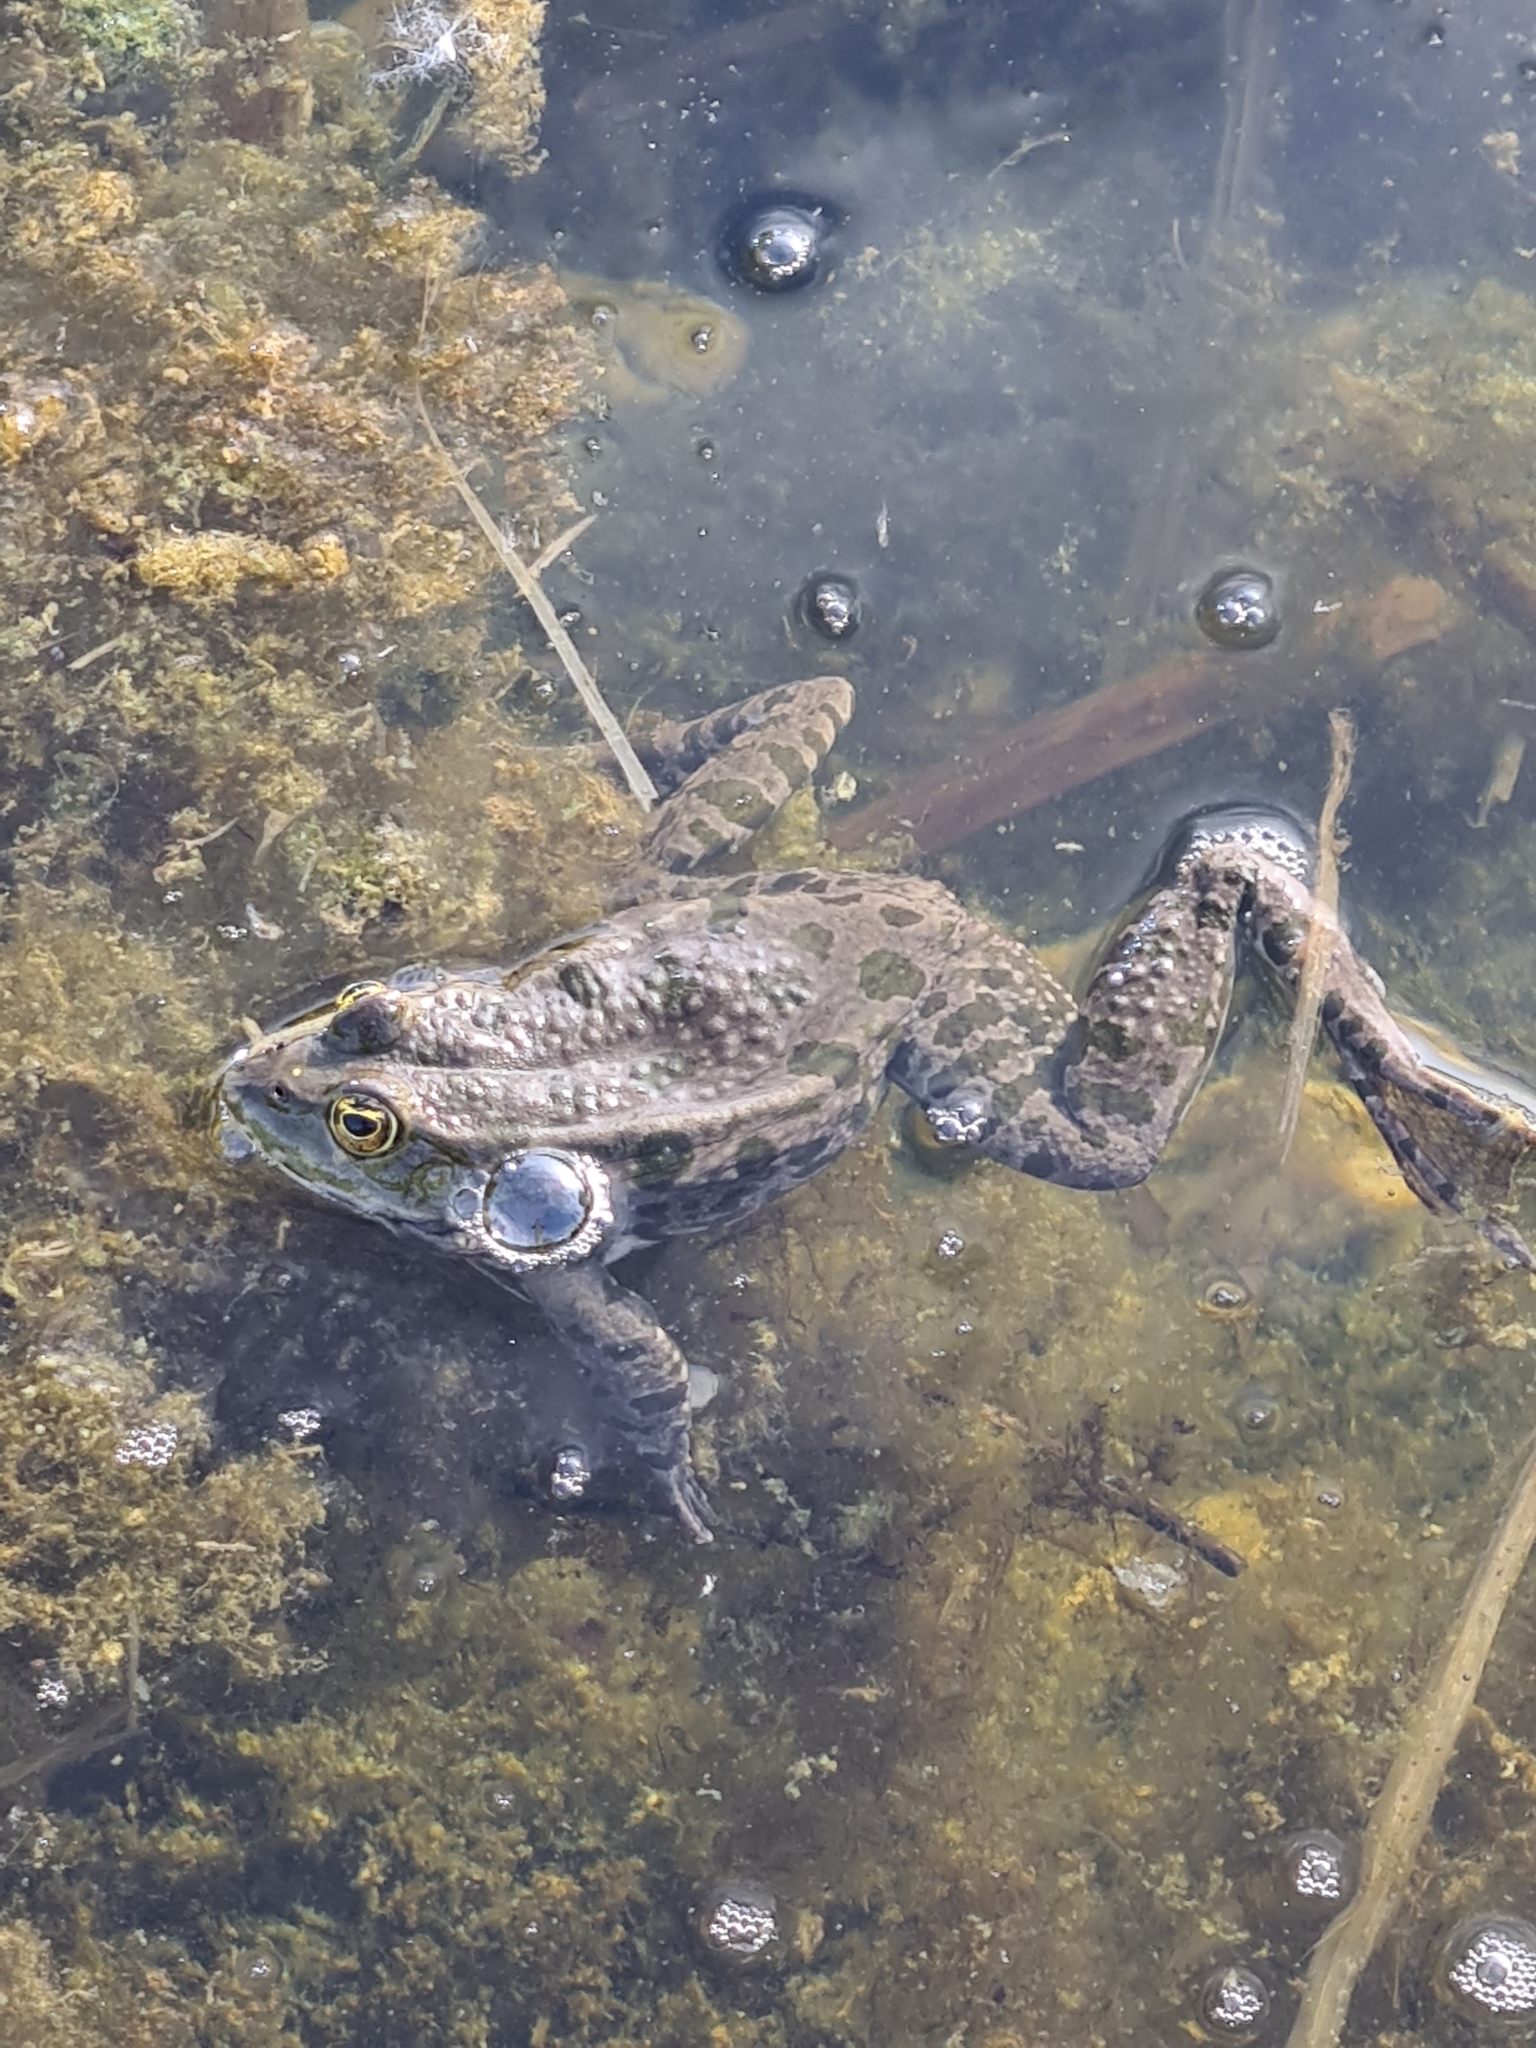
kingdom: Animalia
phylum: Chordata
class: Amphibia
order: Anura
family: Ranidae
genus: Pelophylax
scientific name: Pelophylax
